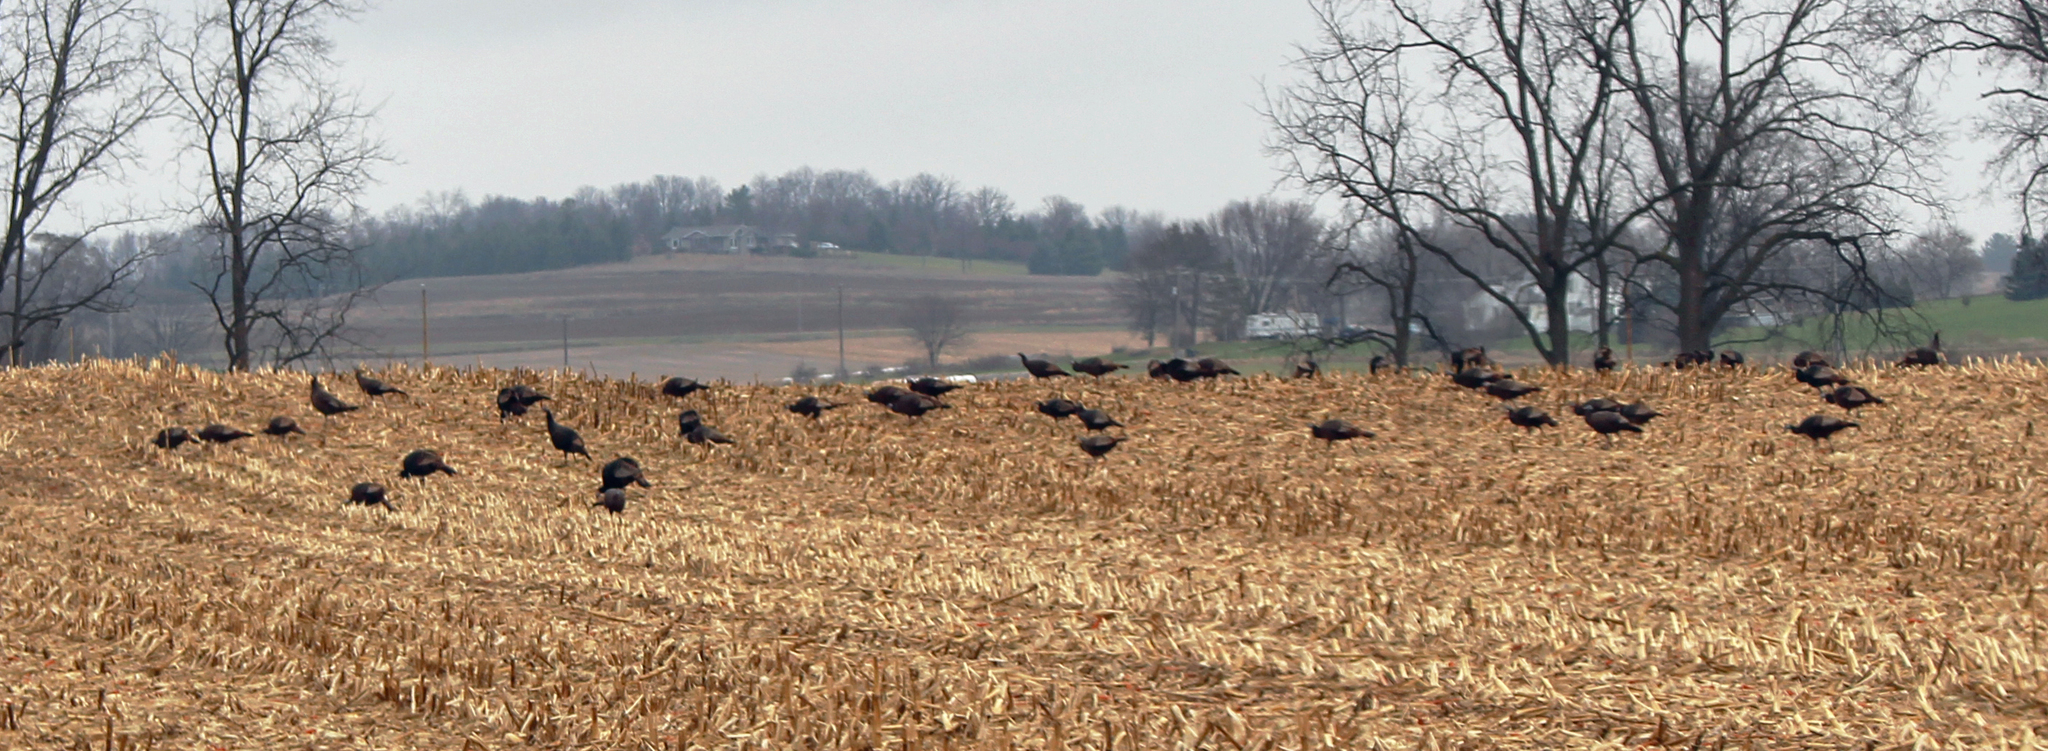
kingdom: Animalia
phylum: Chordata
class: Aves
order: Galliformes
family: Phasianidae
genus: Meleagris
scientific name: Meleagris gallopavo
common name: Wild turkey
